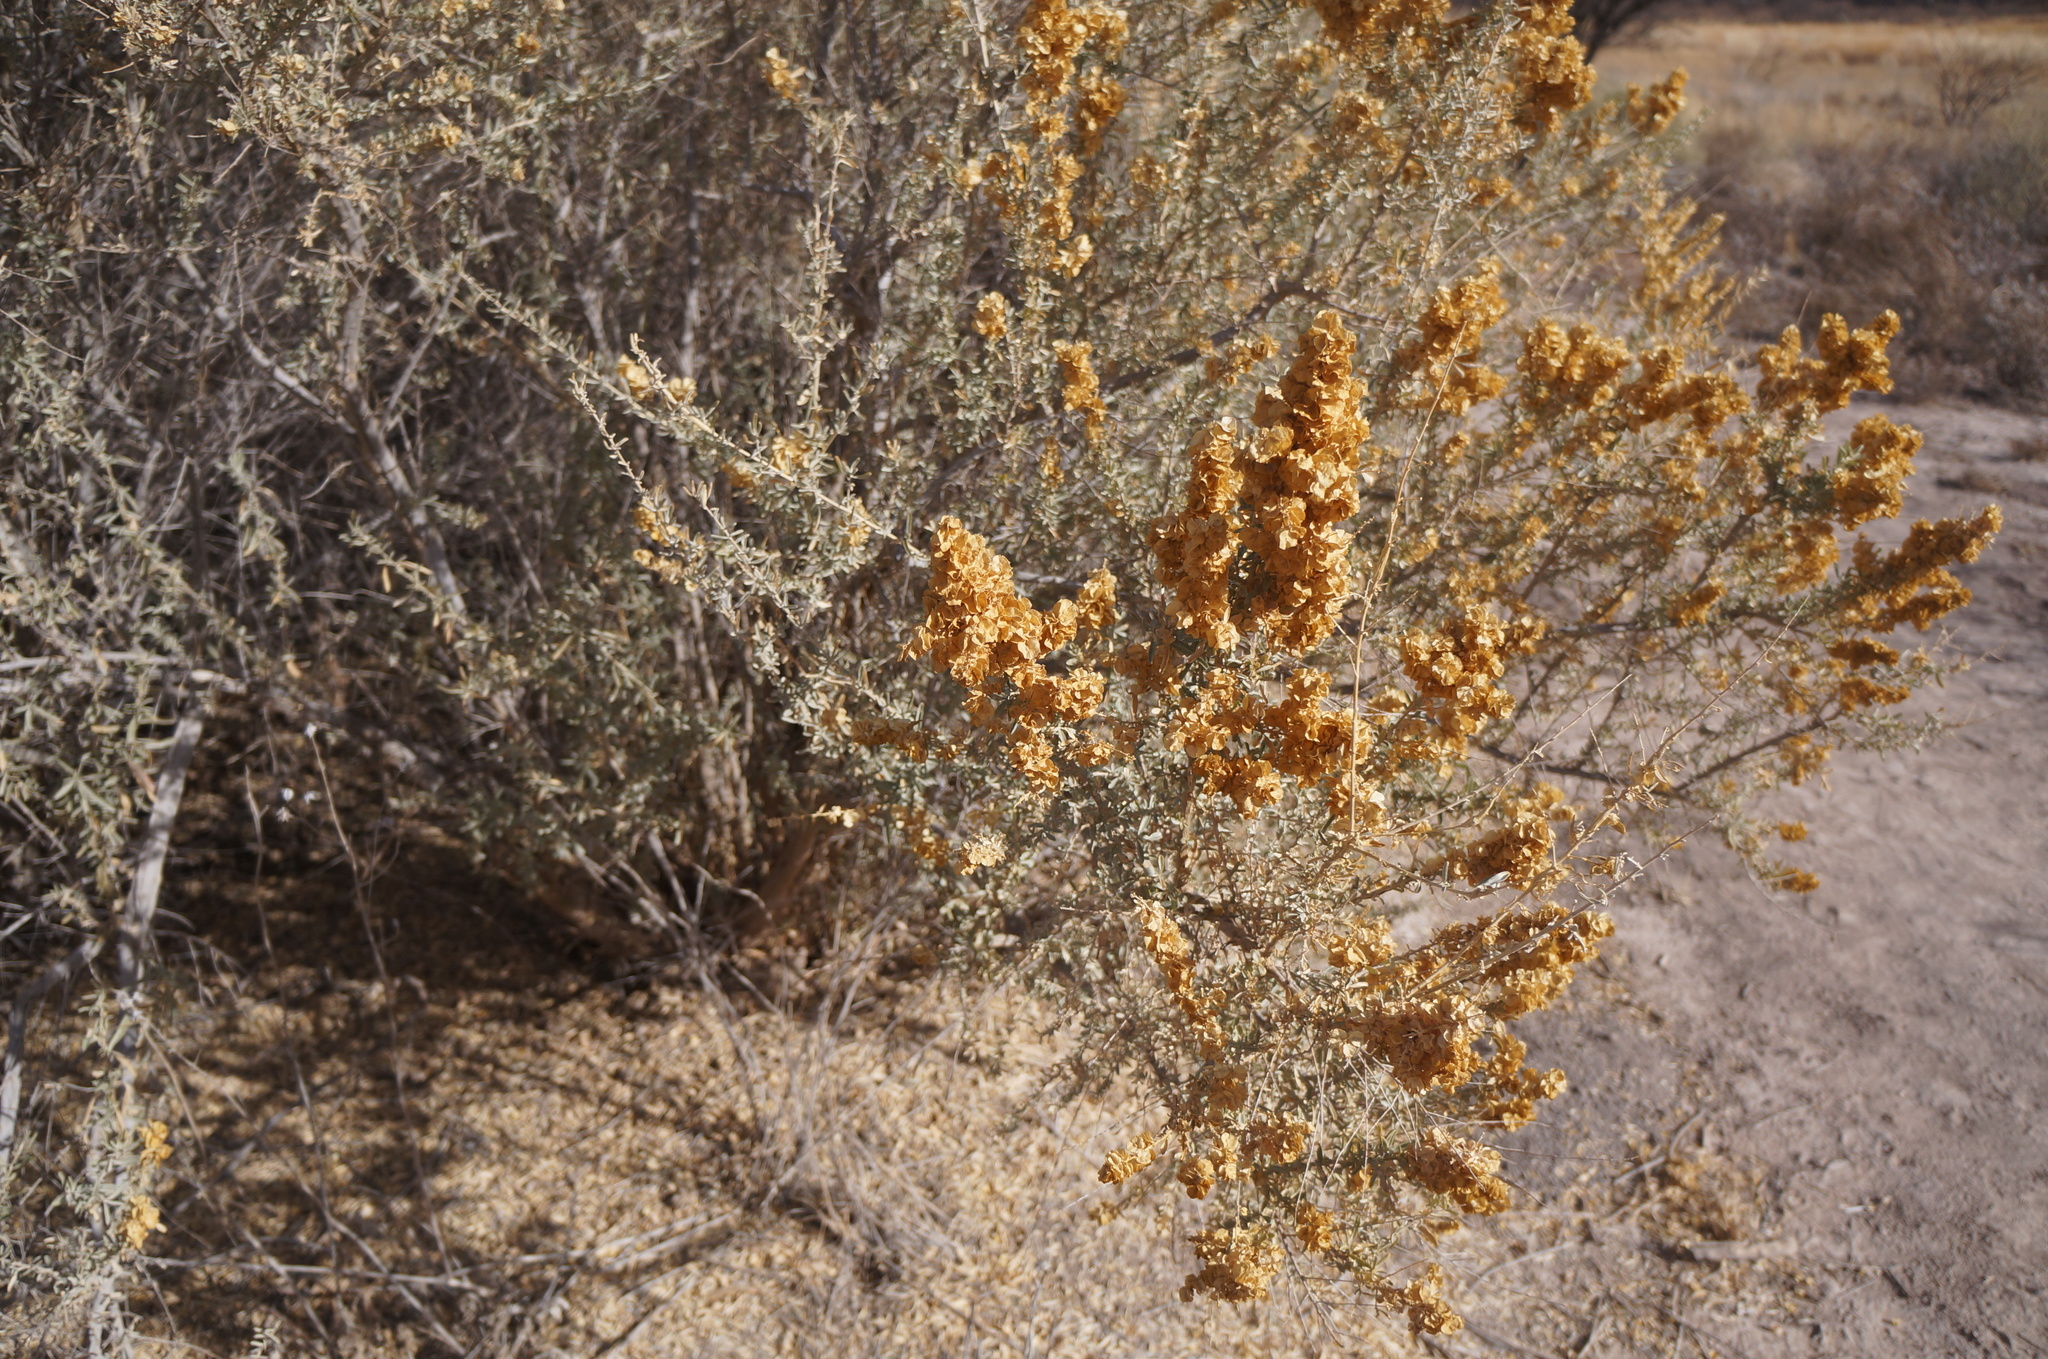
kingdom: Plantae
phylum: Tracheophyta
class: Magnoliopsida
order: Caryophyllales
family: Amaranthaceae
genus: Atriplex
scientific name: Atriplex canescens
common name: Four-wing saltbush
